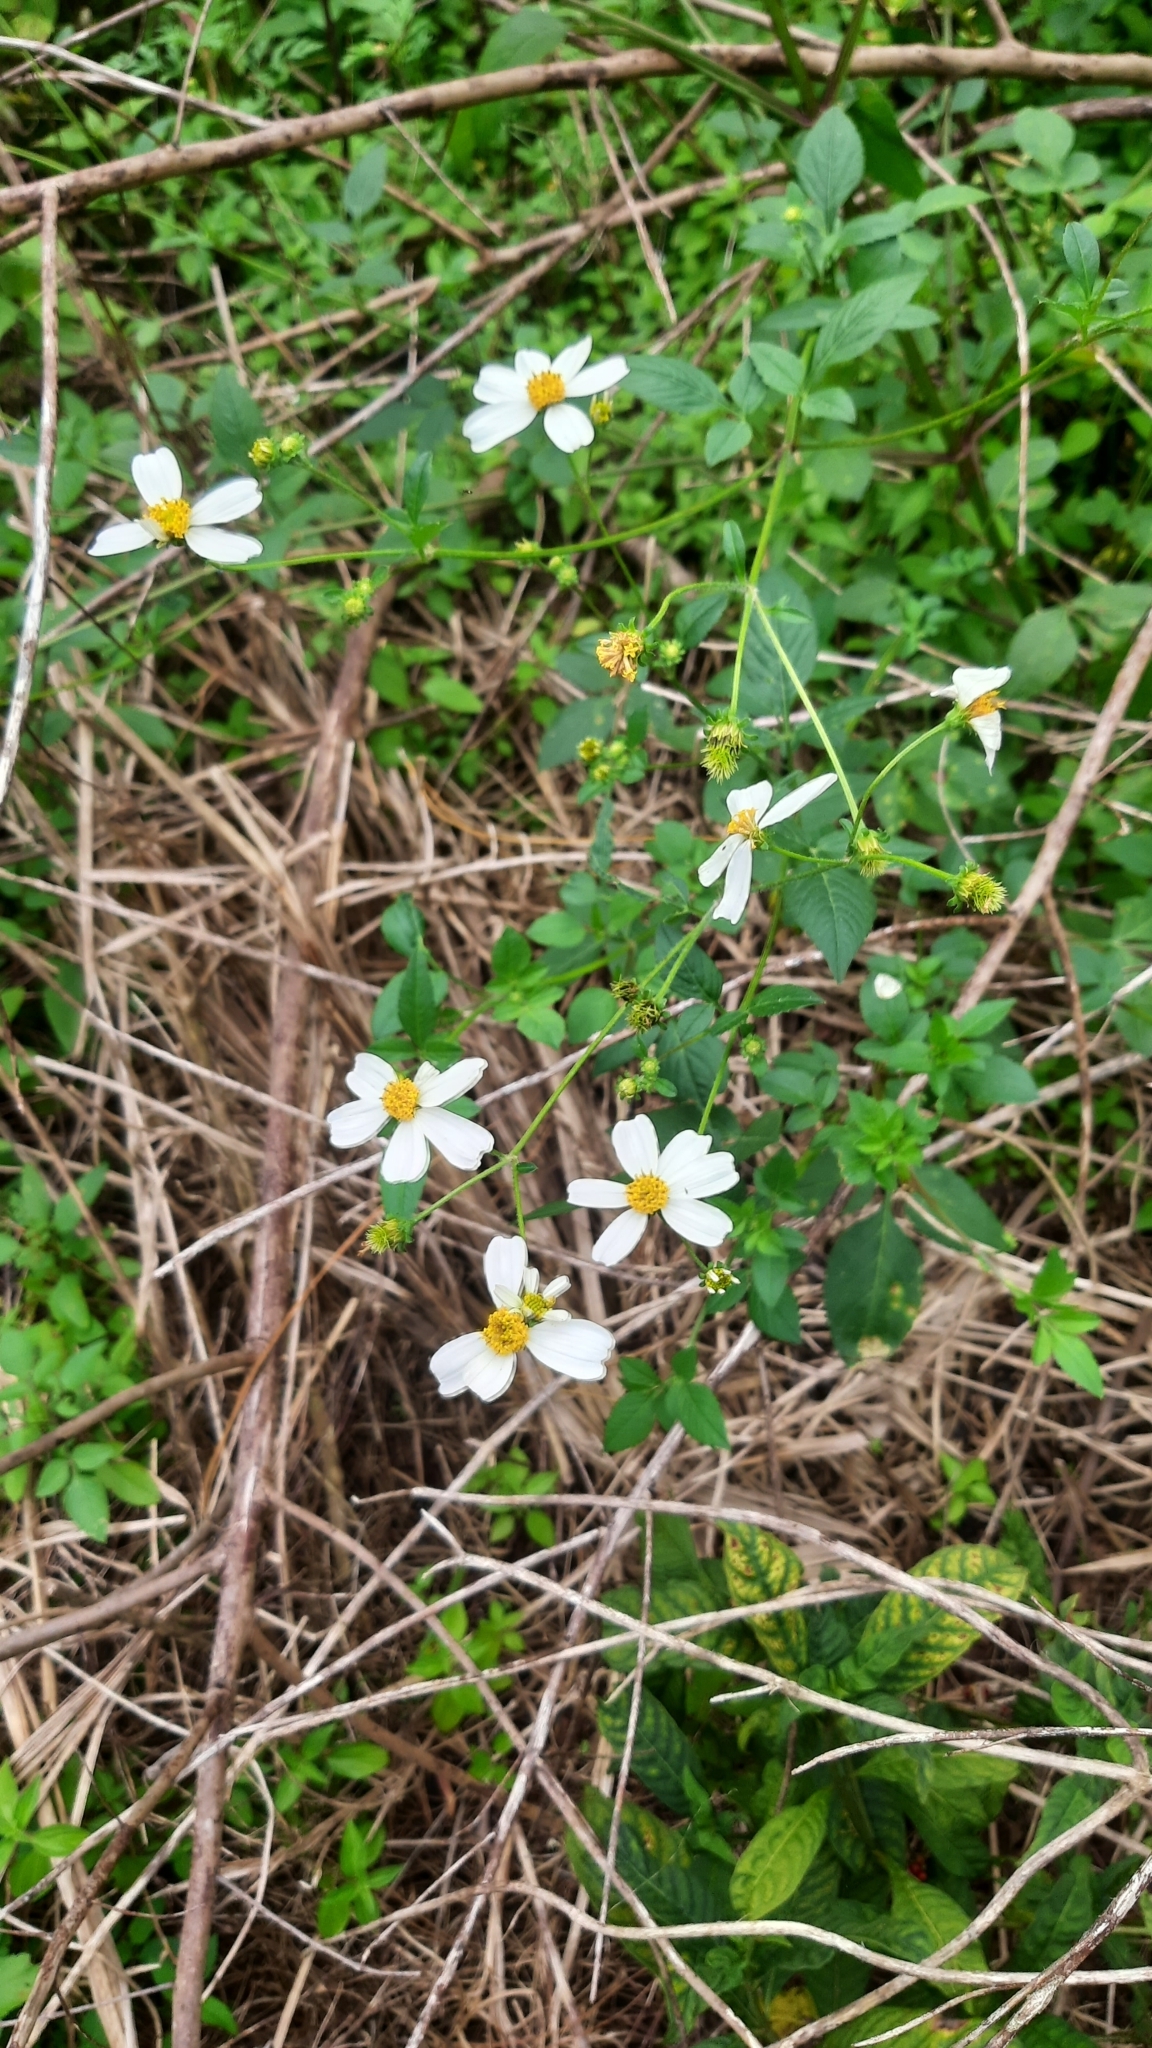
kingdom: Plantae
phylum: Tracheophyta
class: Magnoliopsida
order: Asterales
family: Asteraceae
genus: Bidens
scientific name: Bidens alba
